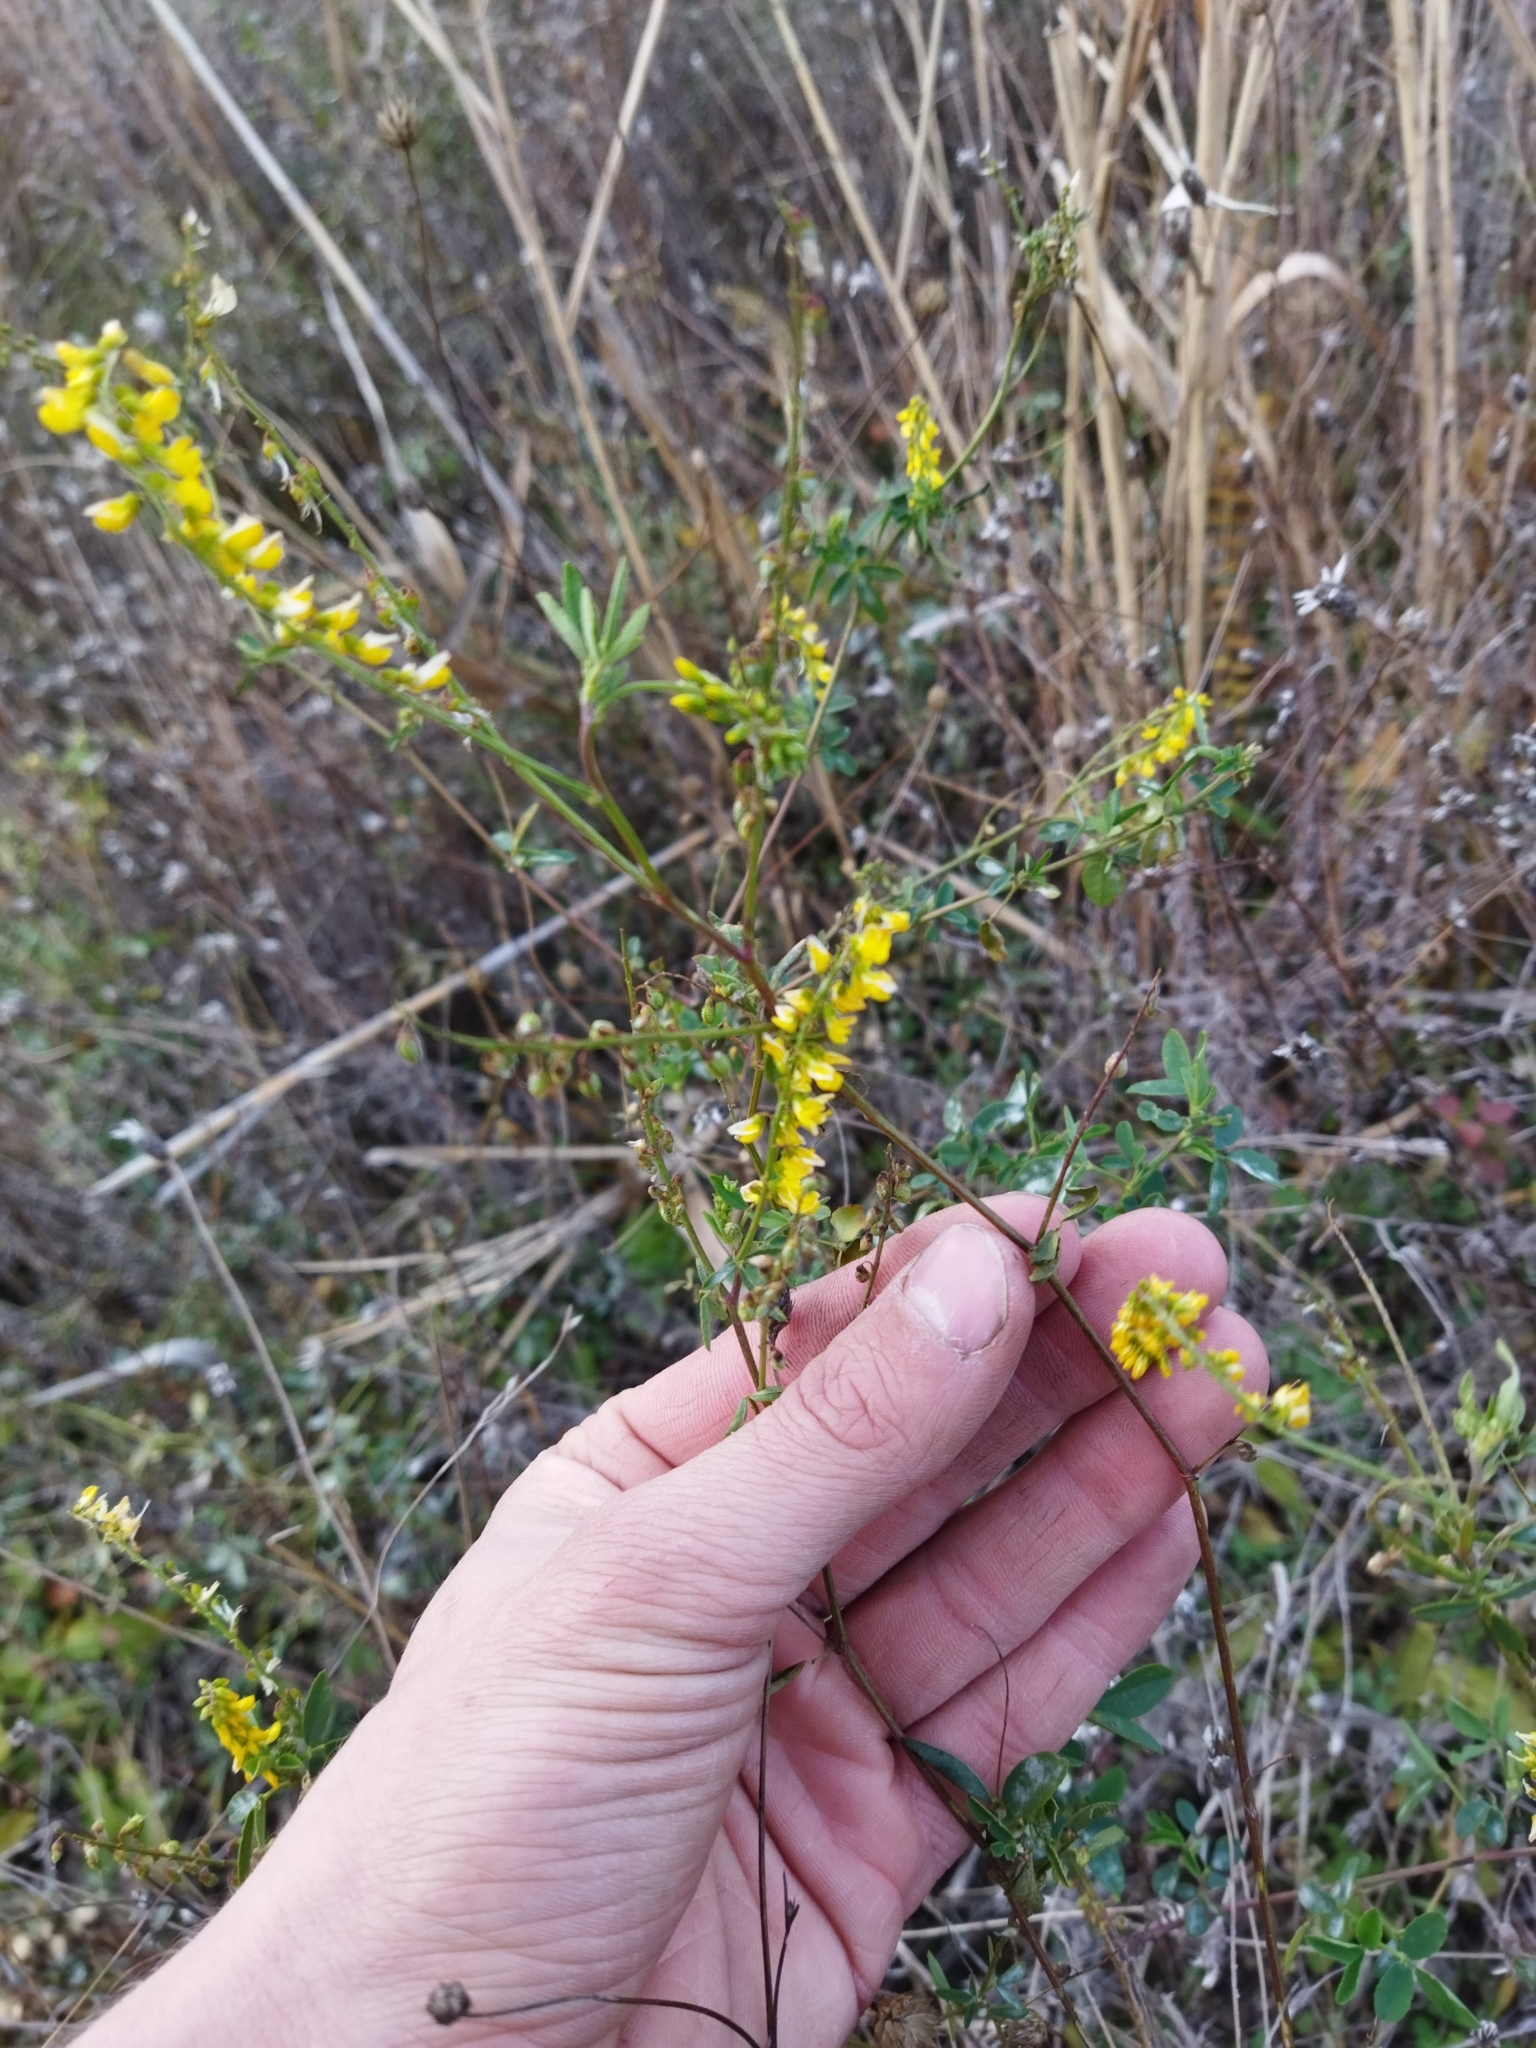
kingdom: Plantae
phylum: Tracheophyta
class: Magnoliopsida
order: Fabales
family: Fabaceae
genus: Melilotus
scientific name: Melilotus officinalis
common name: Sweetclover
